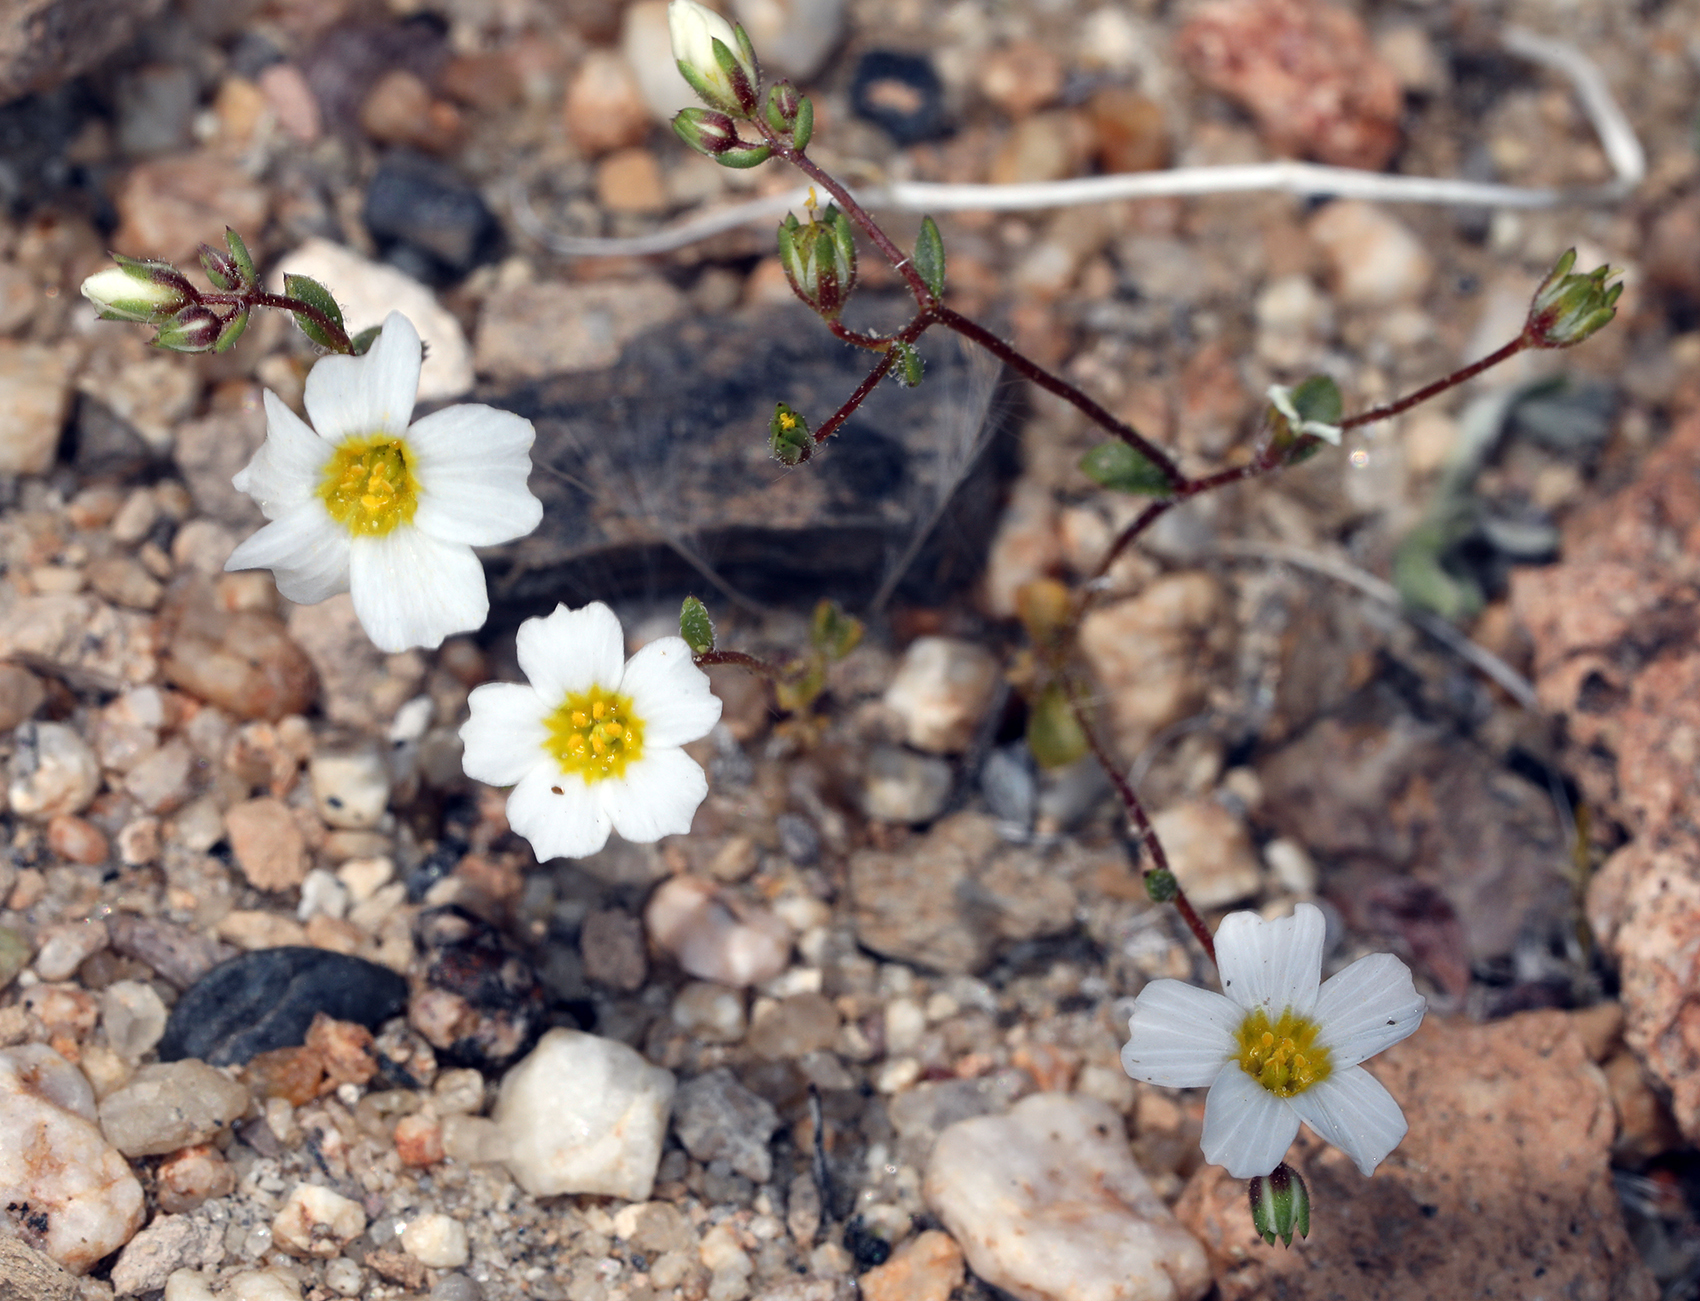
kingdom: Plantae
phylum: Tracheophyta
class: Magnoliopsida
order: Ericales
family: Polemoniaceae
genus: Linanthus
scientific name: Linanthus inyoensis
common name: Inyo gilia
